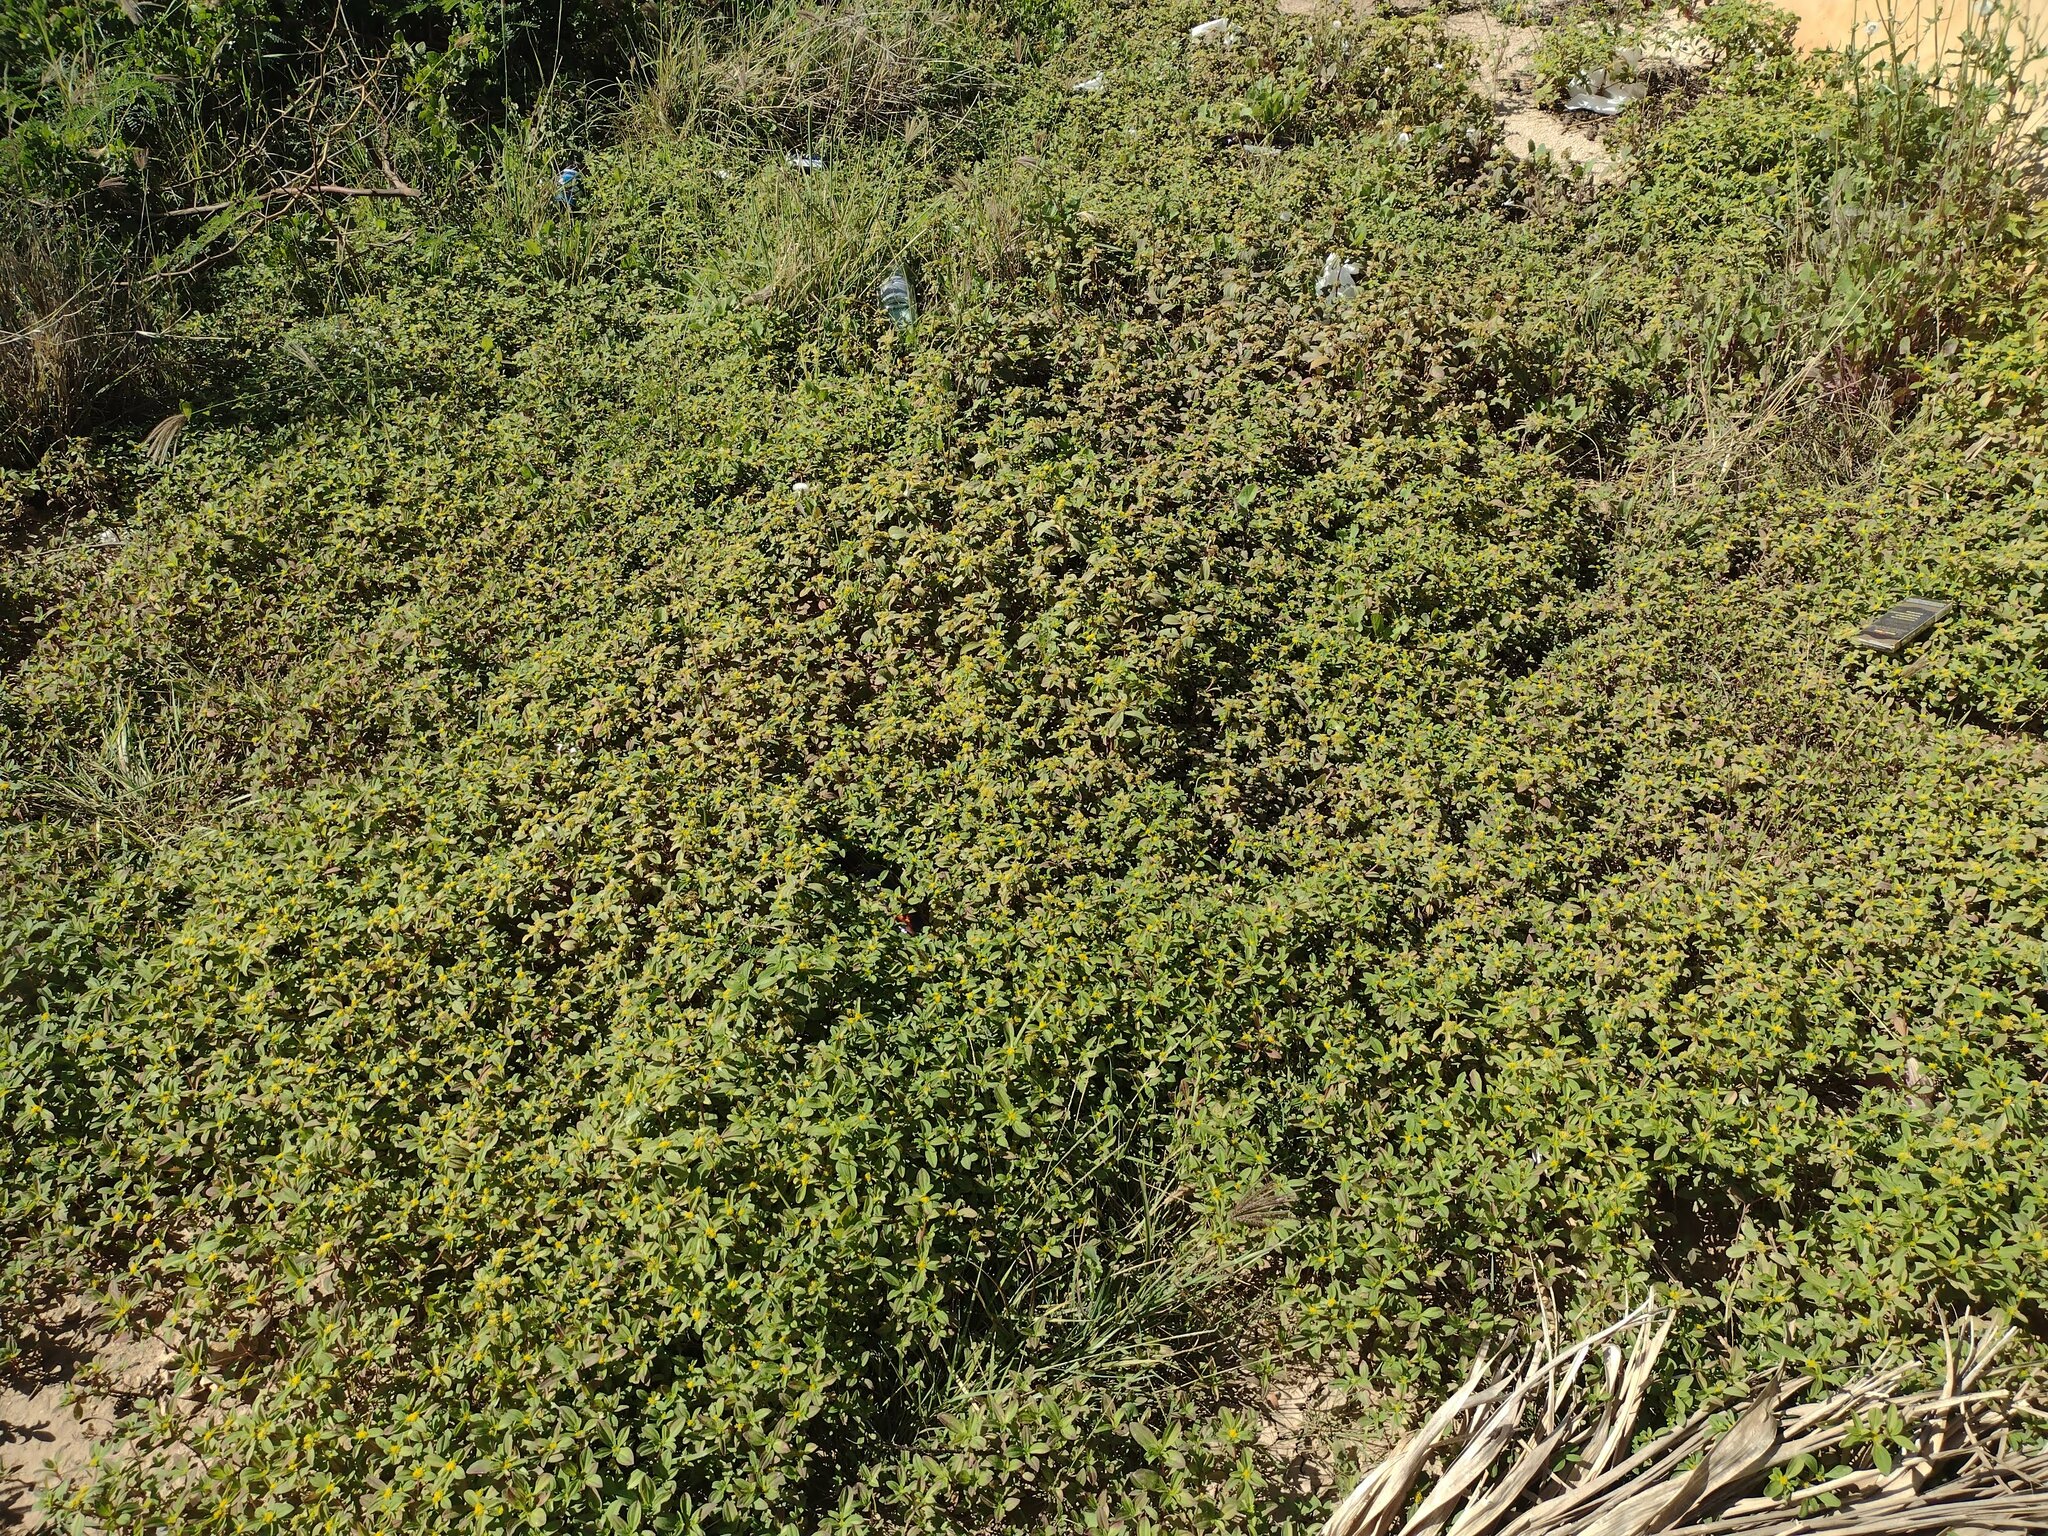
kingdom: Plantae
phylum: Tracheophyta
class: Magnoliopsida
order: Asterales
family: Asteraceae
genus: Flaveria
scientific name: Flaveria trinervia
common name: Clustered yellowtops
